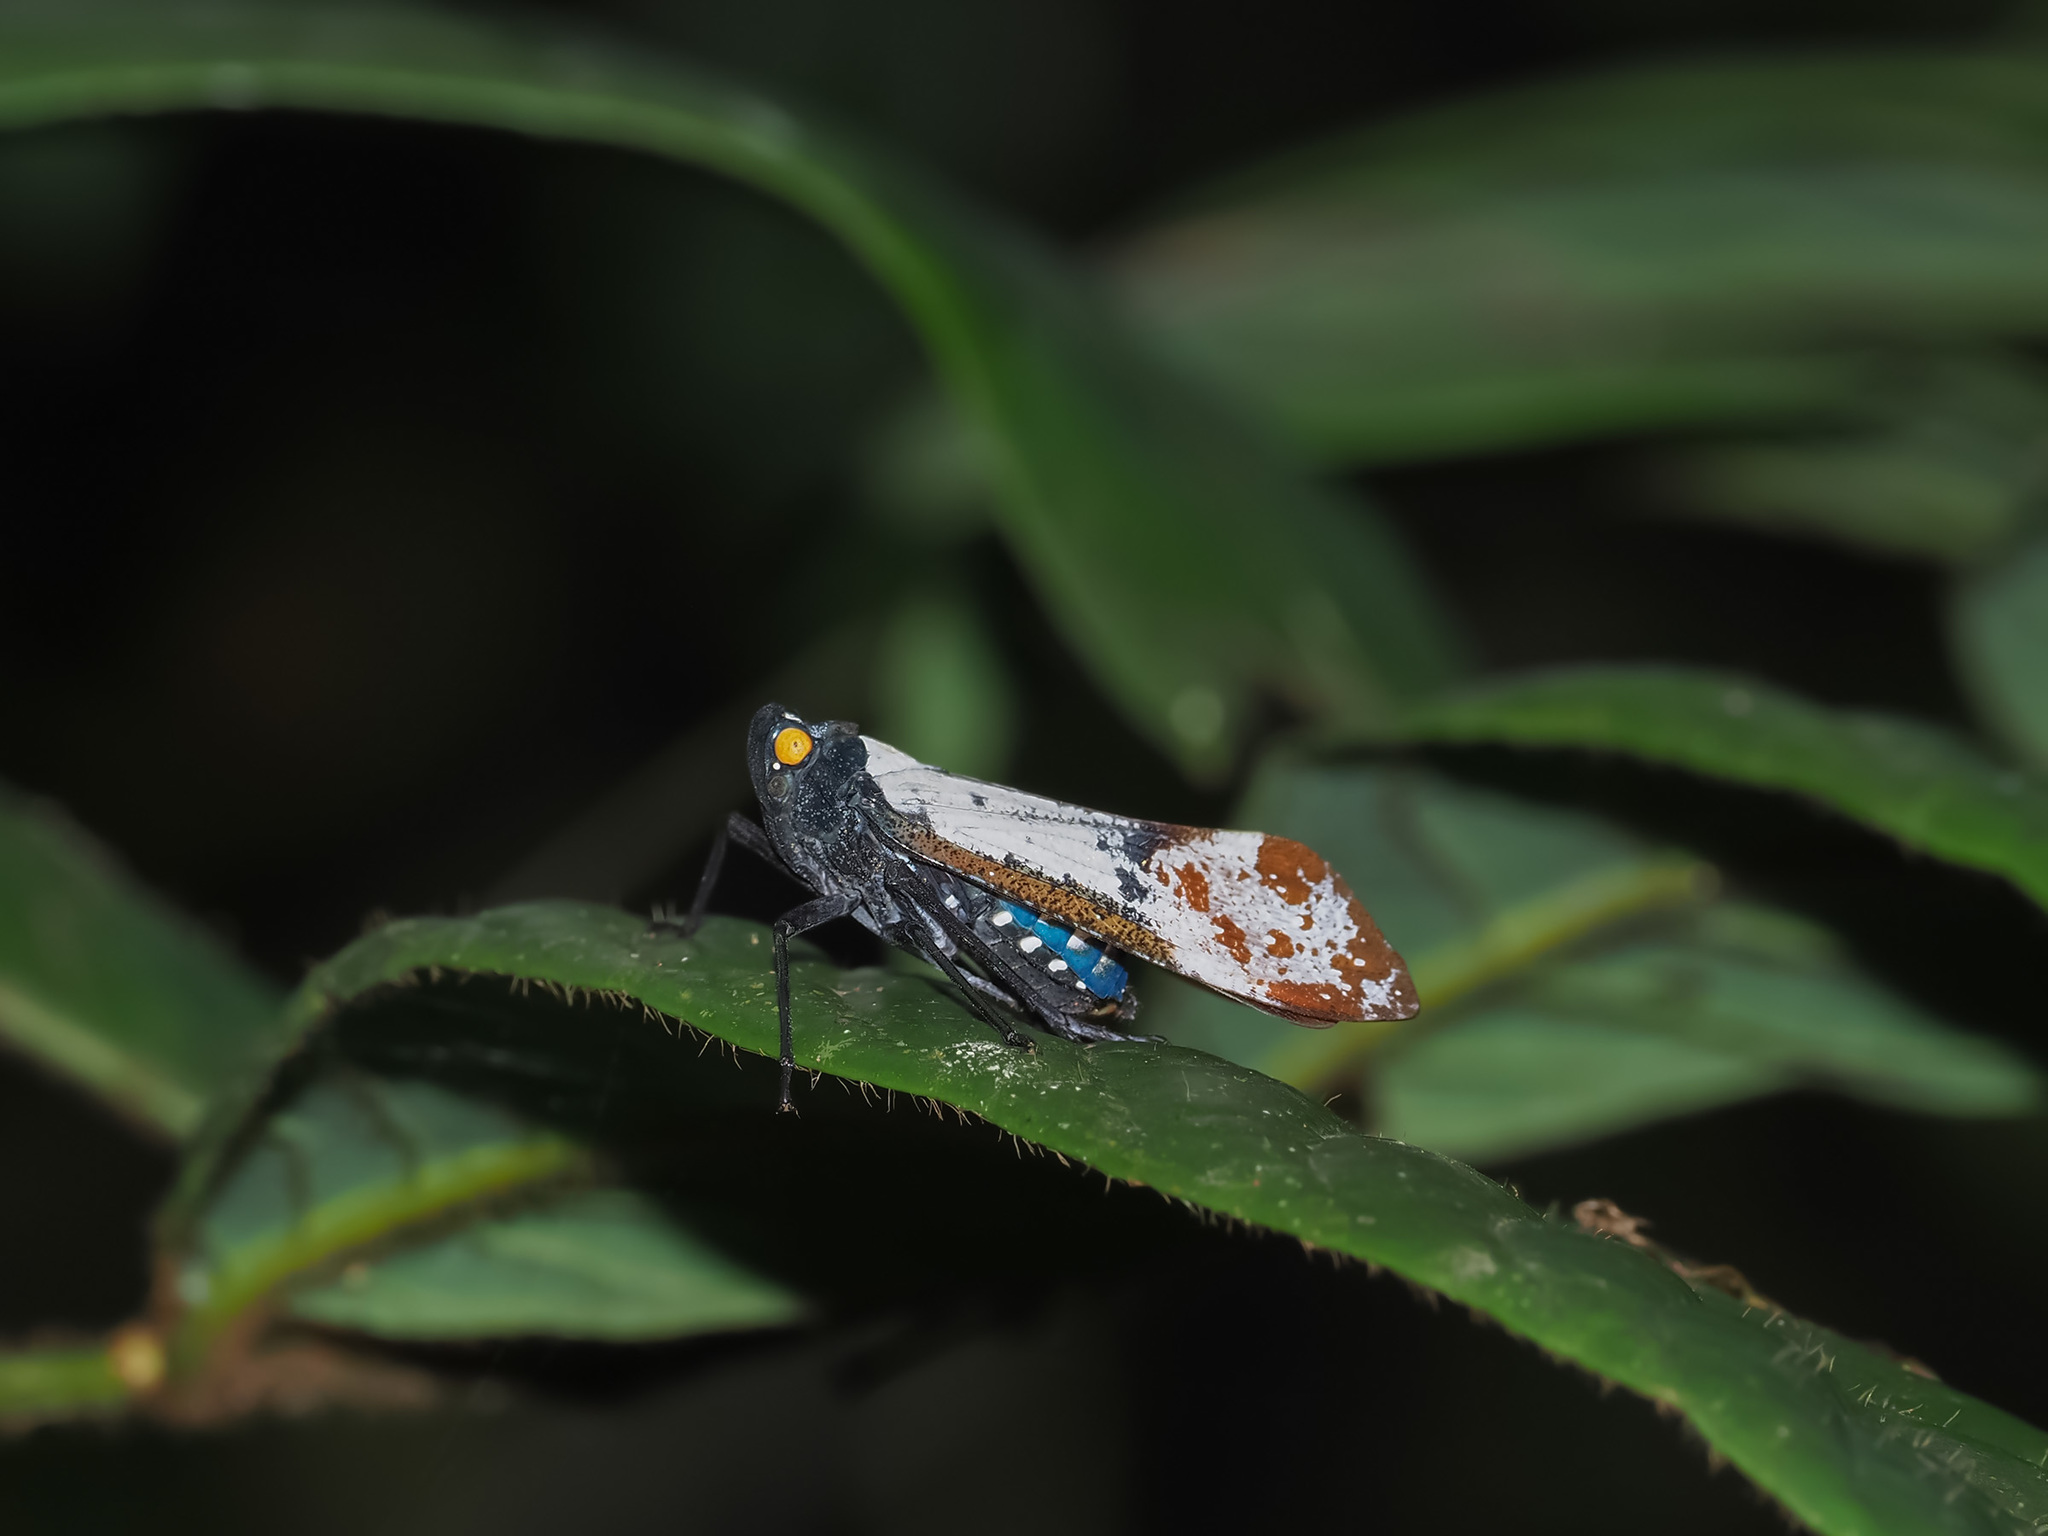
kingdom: Animalia
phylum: Arthropoda
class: Insecta
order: Hemiptera
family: Fulgoridae
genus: Penthicodes
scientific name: Penthicodes farinosa
